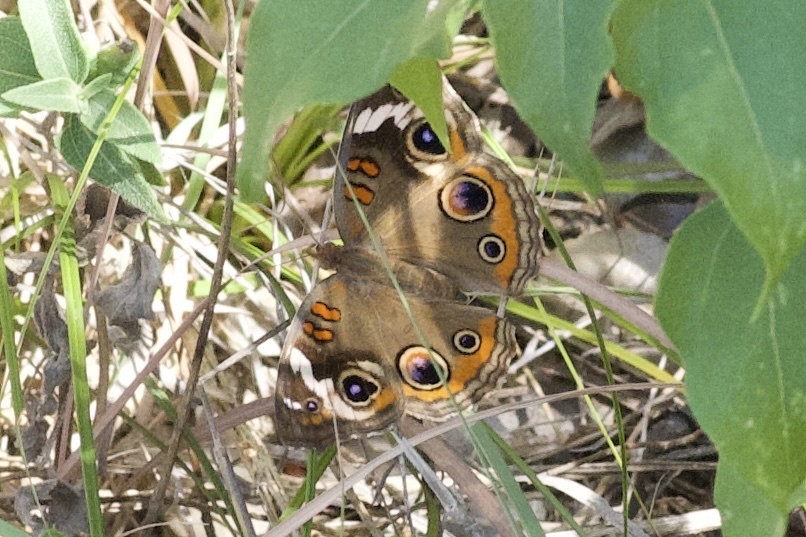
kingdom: Animalia
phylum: Arthropoda
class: Insecta
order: Lepidoptera
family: Nymphalidae
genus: Junonia
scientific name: Junonia coenia
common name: Common buckeye
